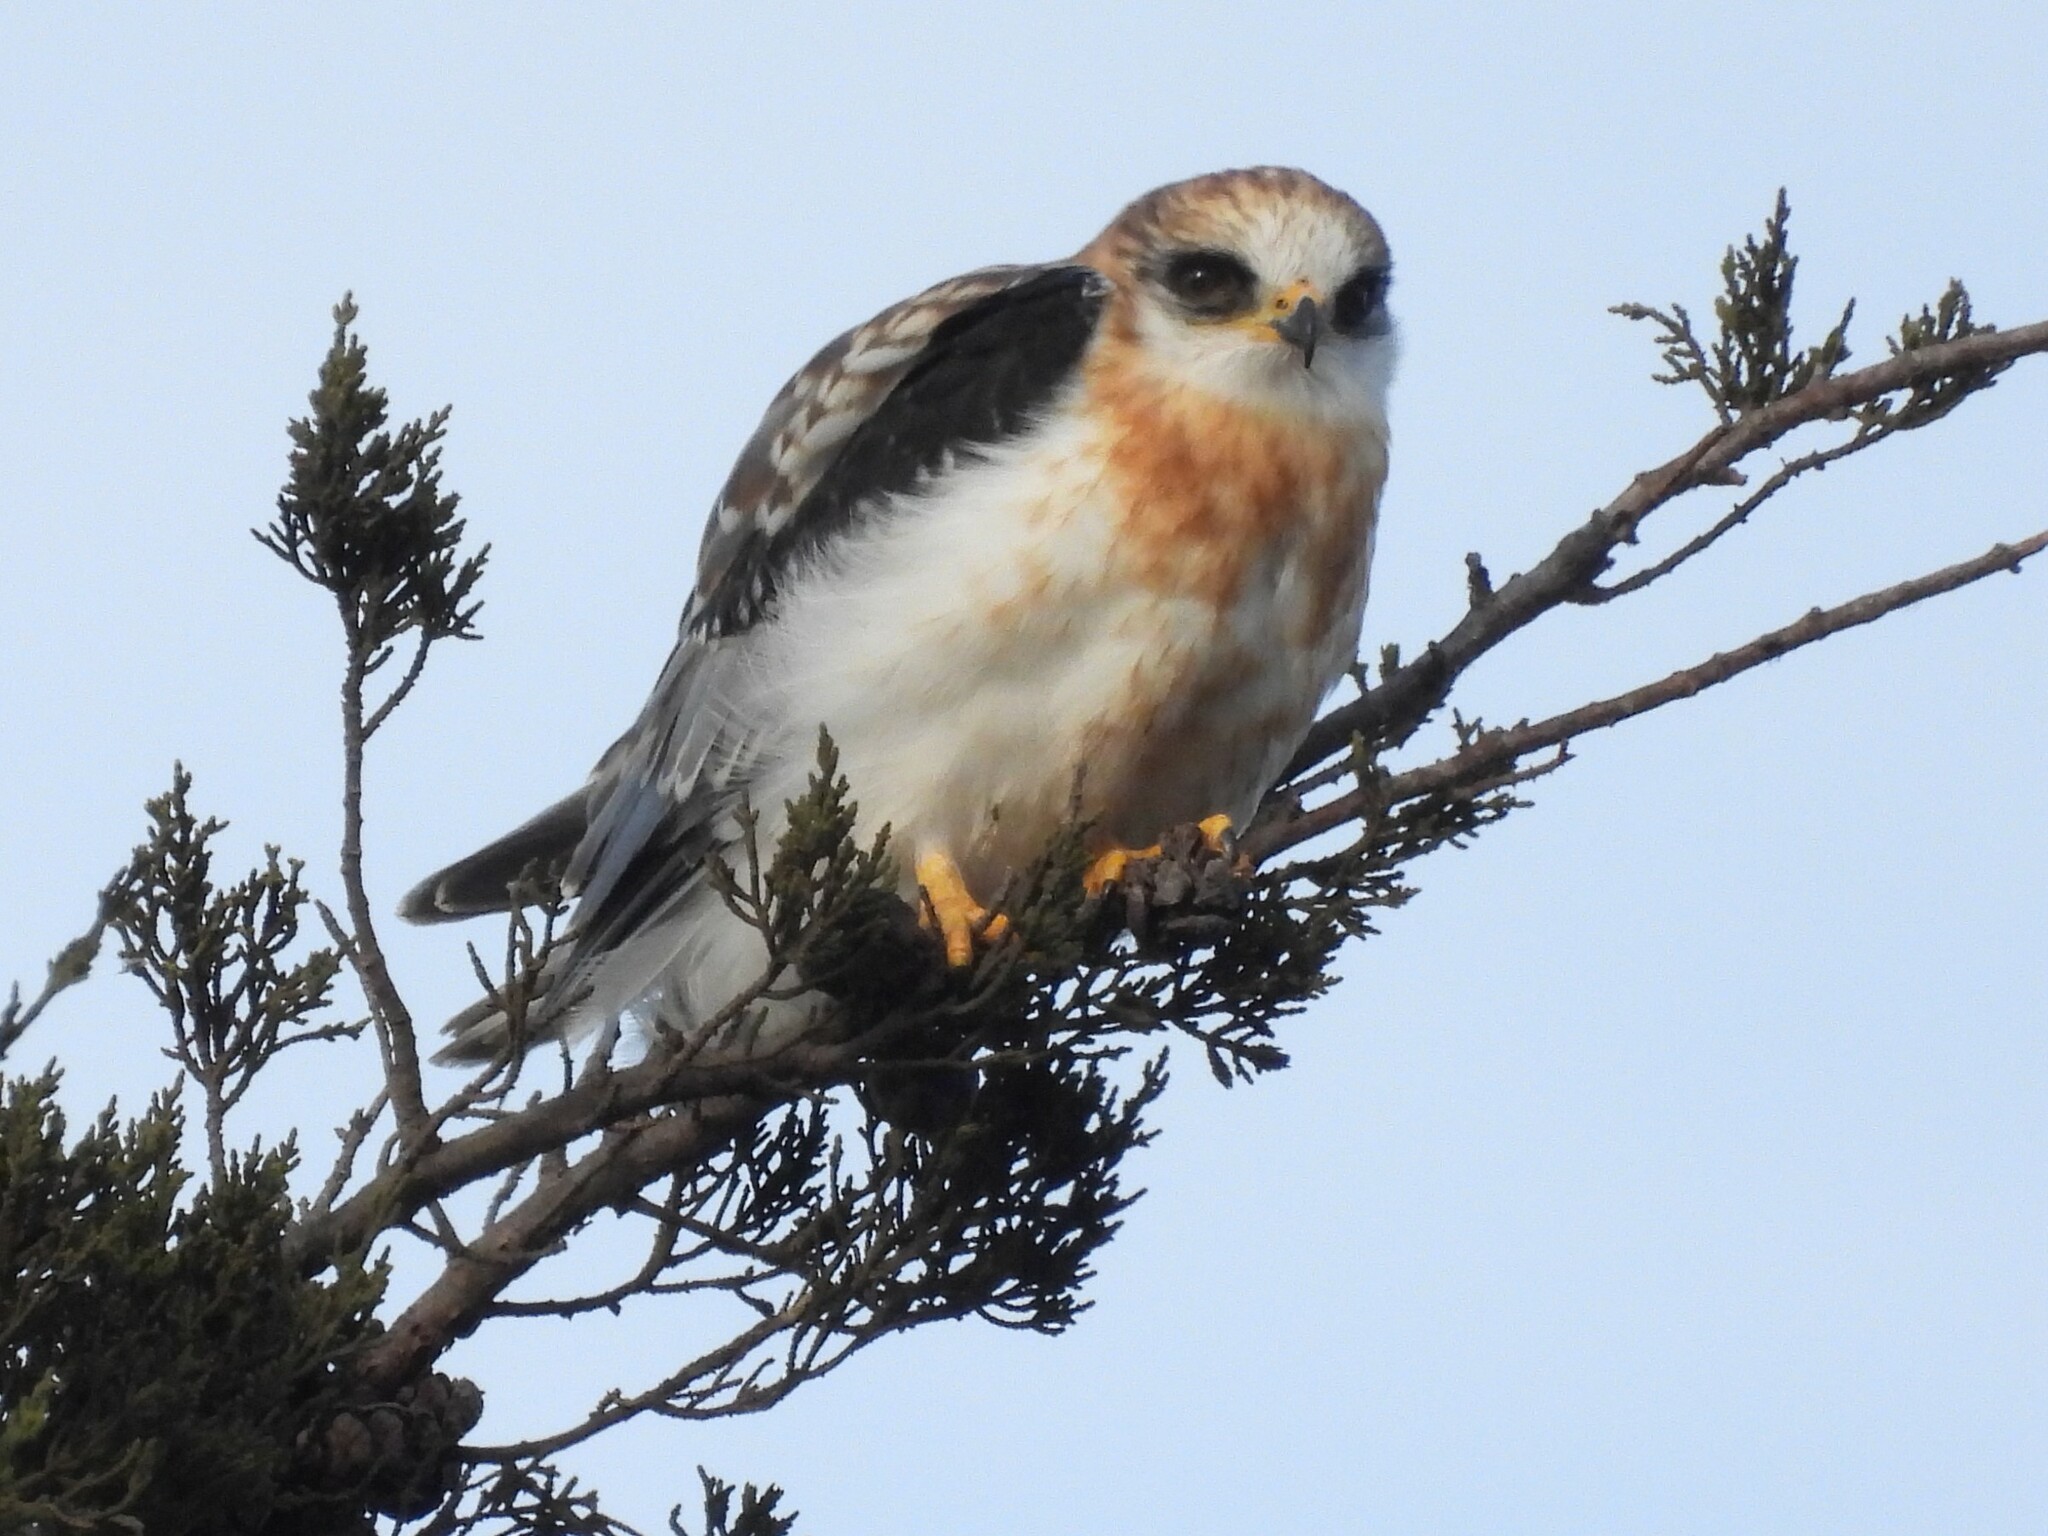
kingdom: Animalia
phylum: Chordata
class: Aves
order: Accipitriformes
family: Accipitridae
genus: Elanus
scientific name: Elanus leucurus
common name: White-tailed kite
